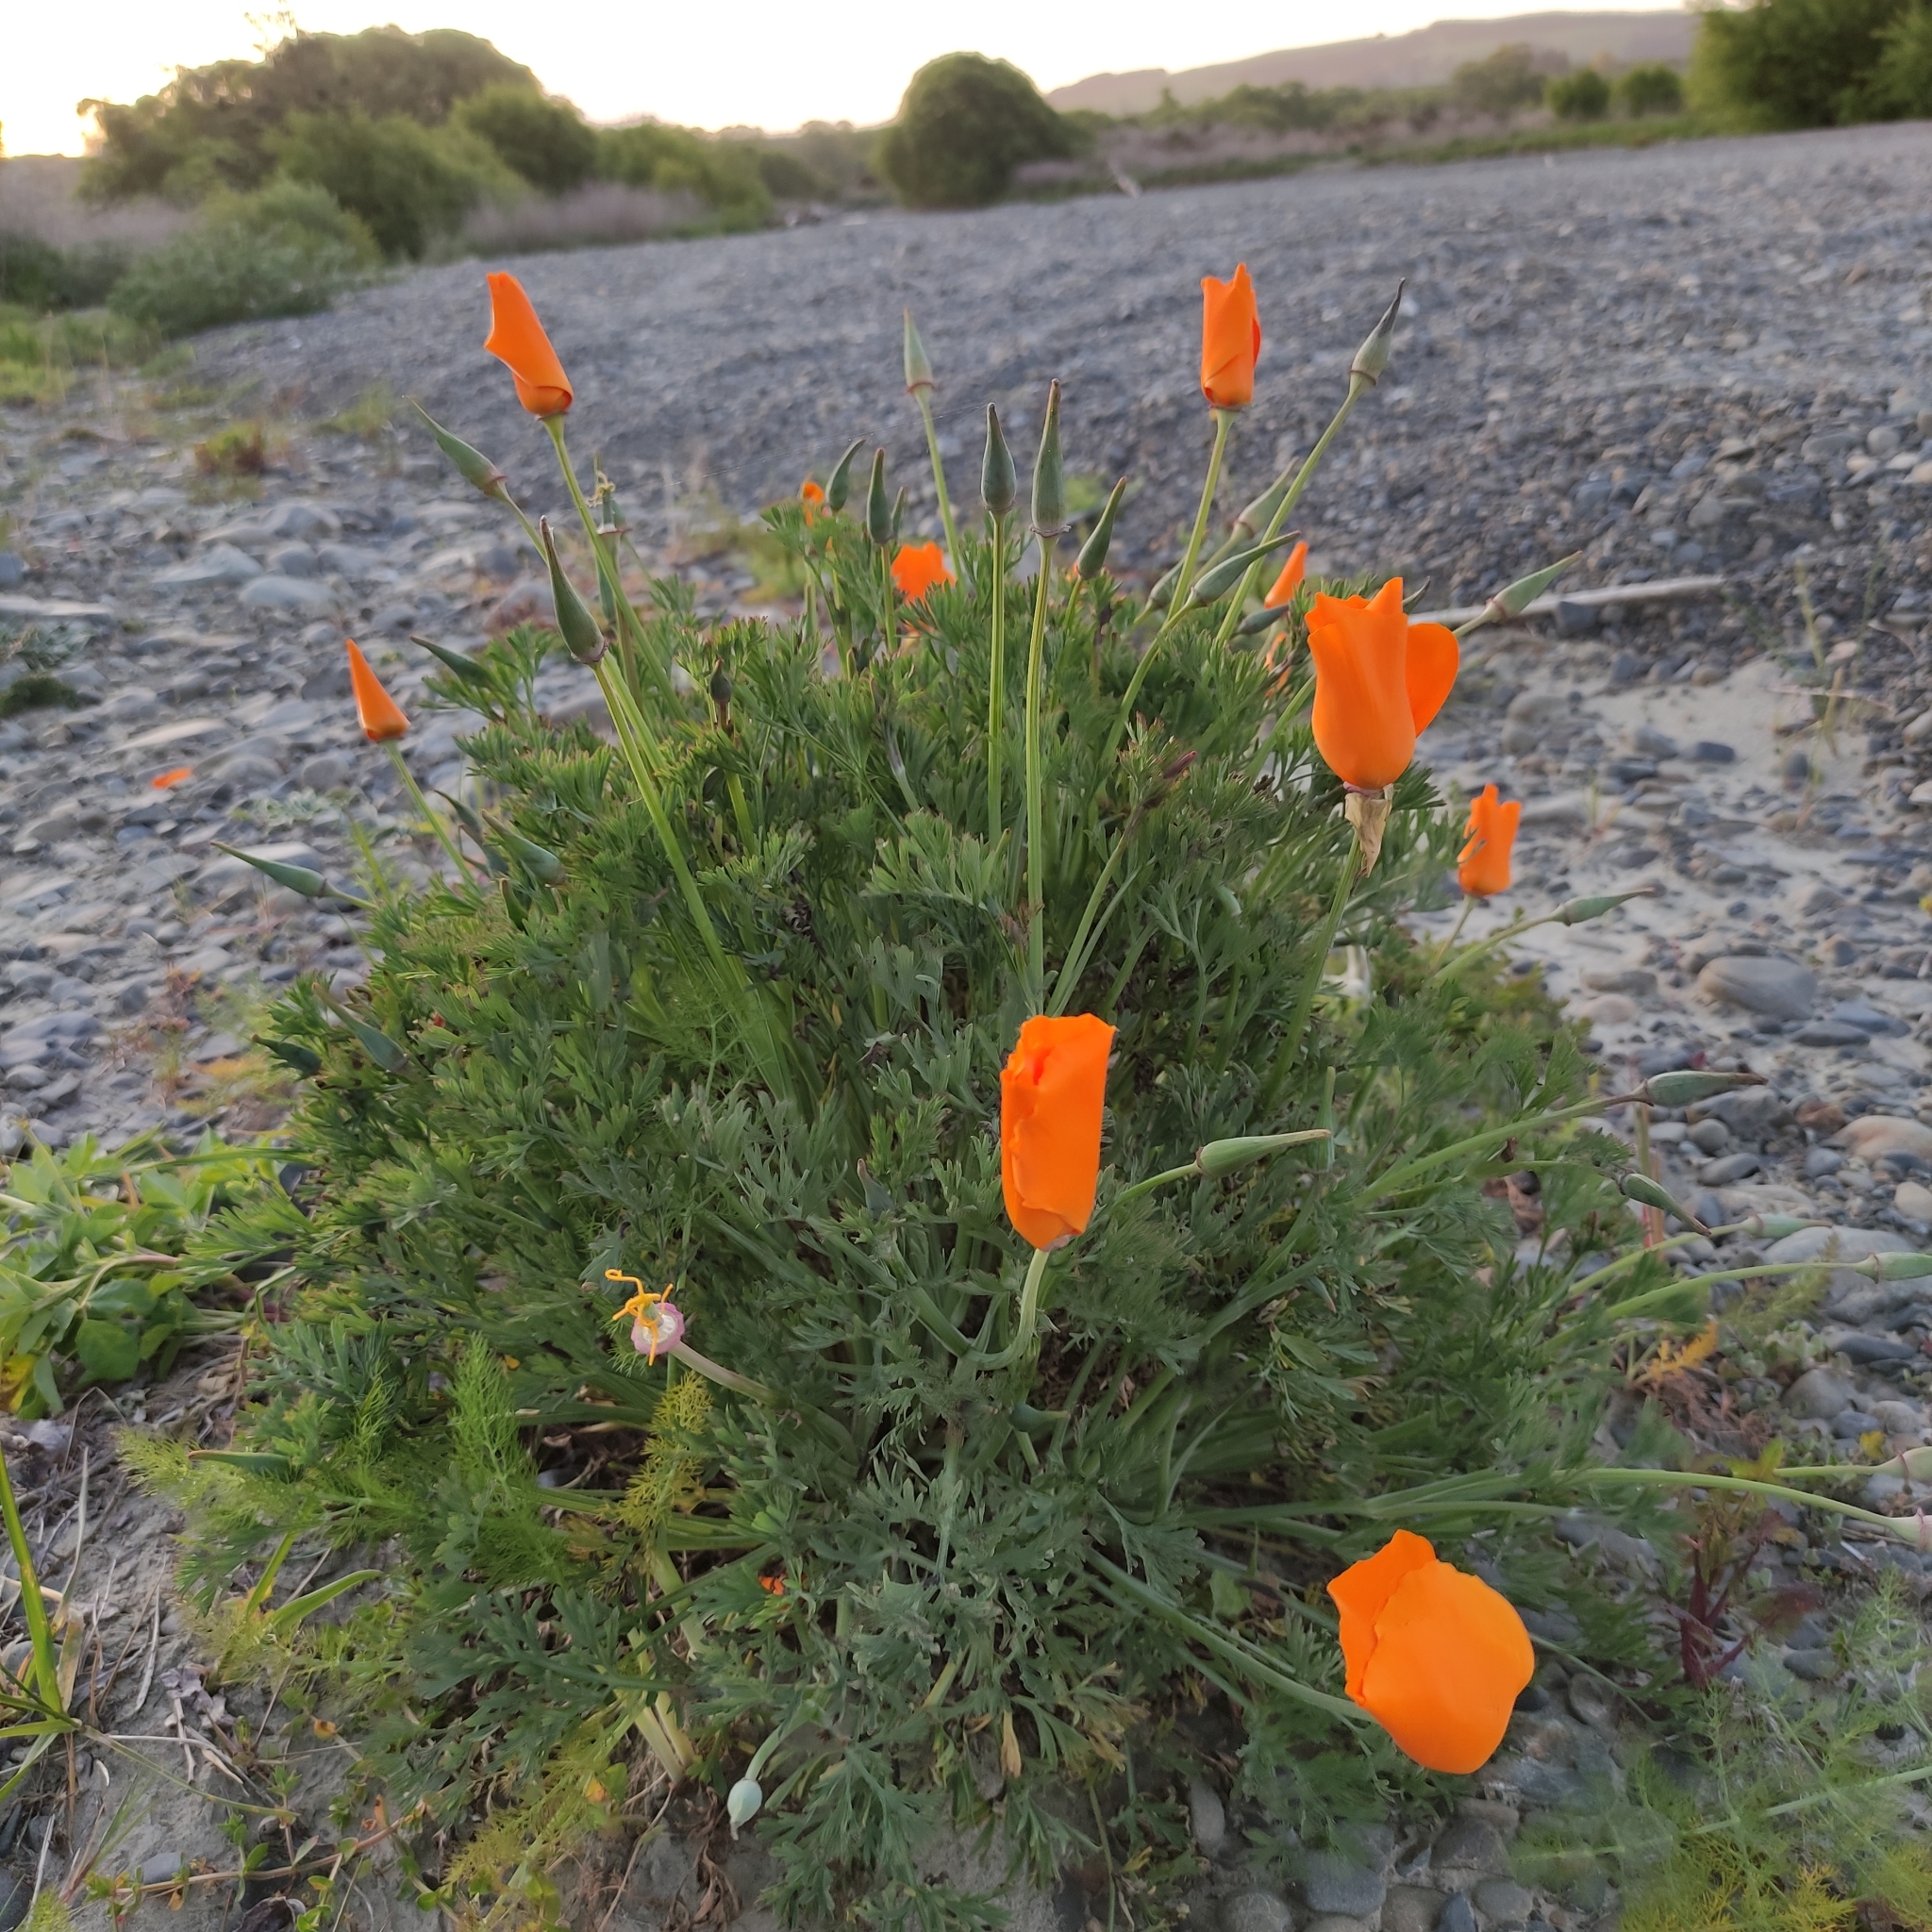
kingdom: Plantae
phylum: Tracheophyta
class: Magnoliopsida
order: Ranunculales
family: Papaveraceae
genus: Eschscholzia
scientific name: Eschscholzia californica
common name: California poppy
